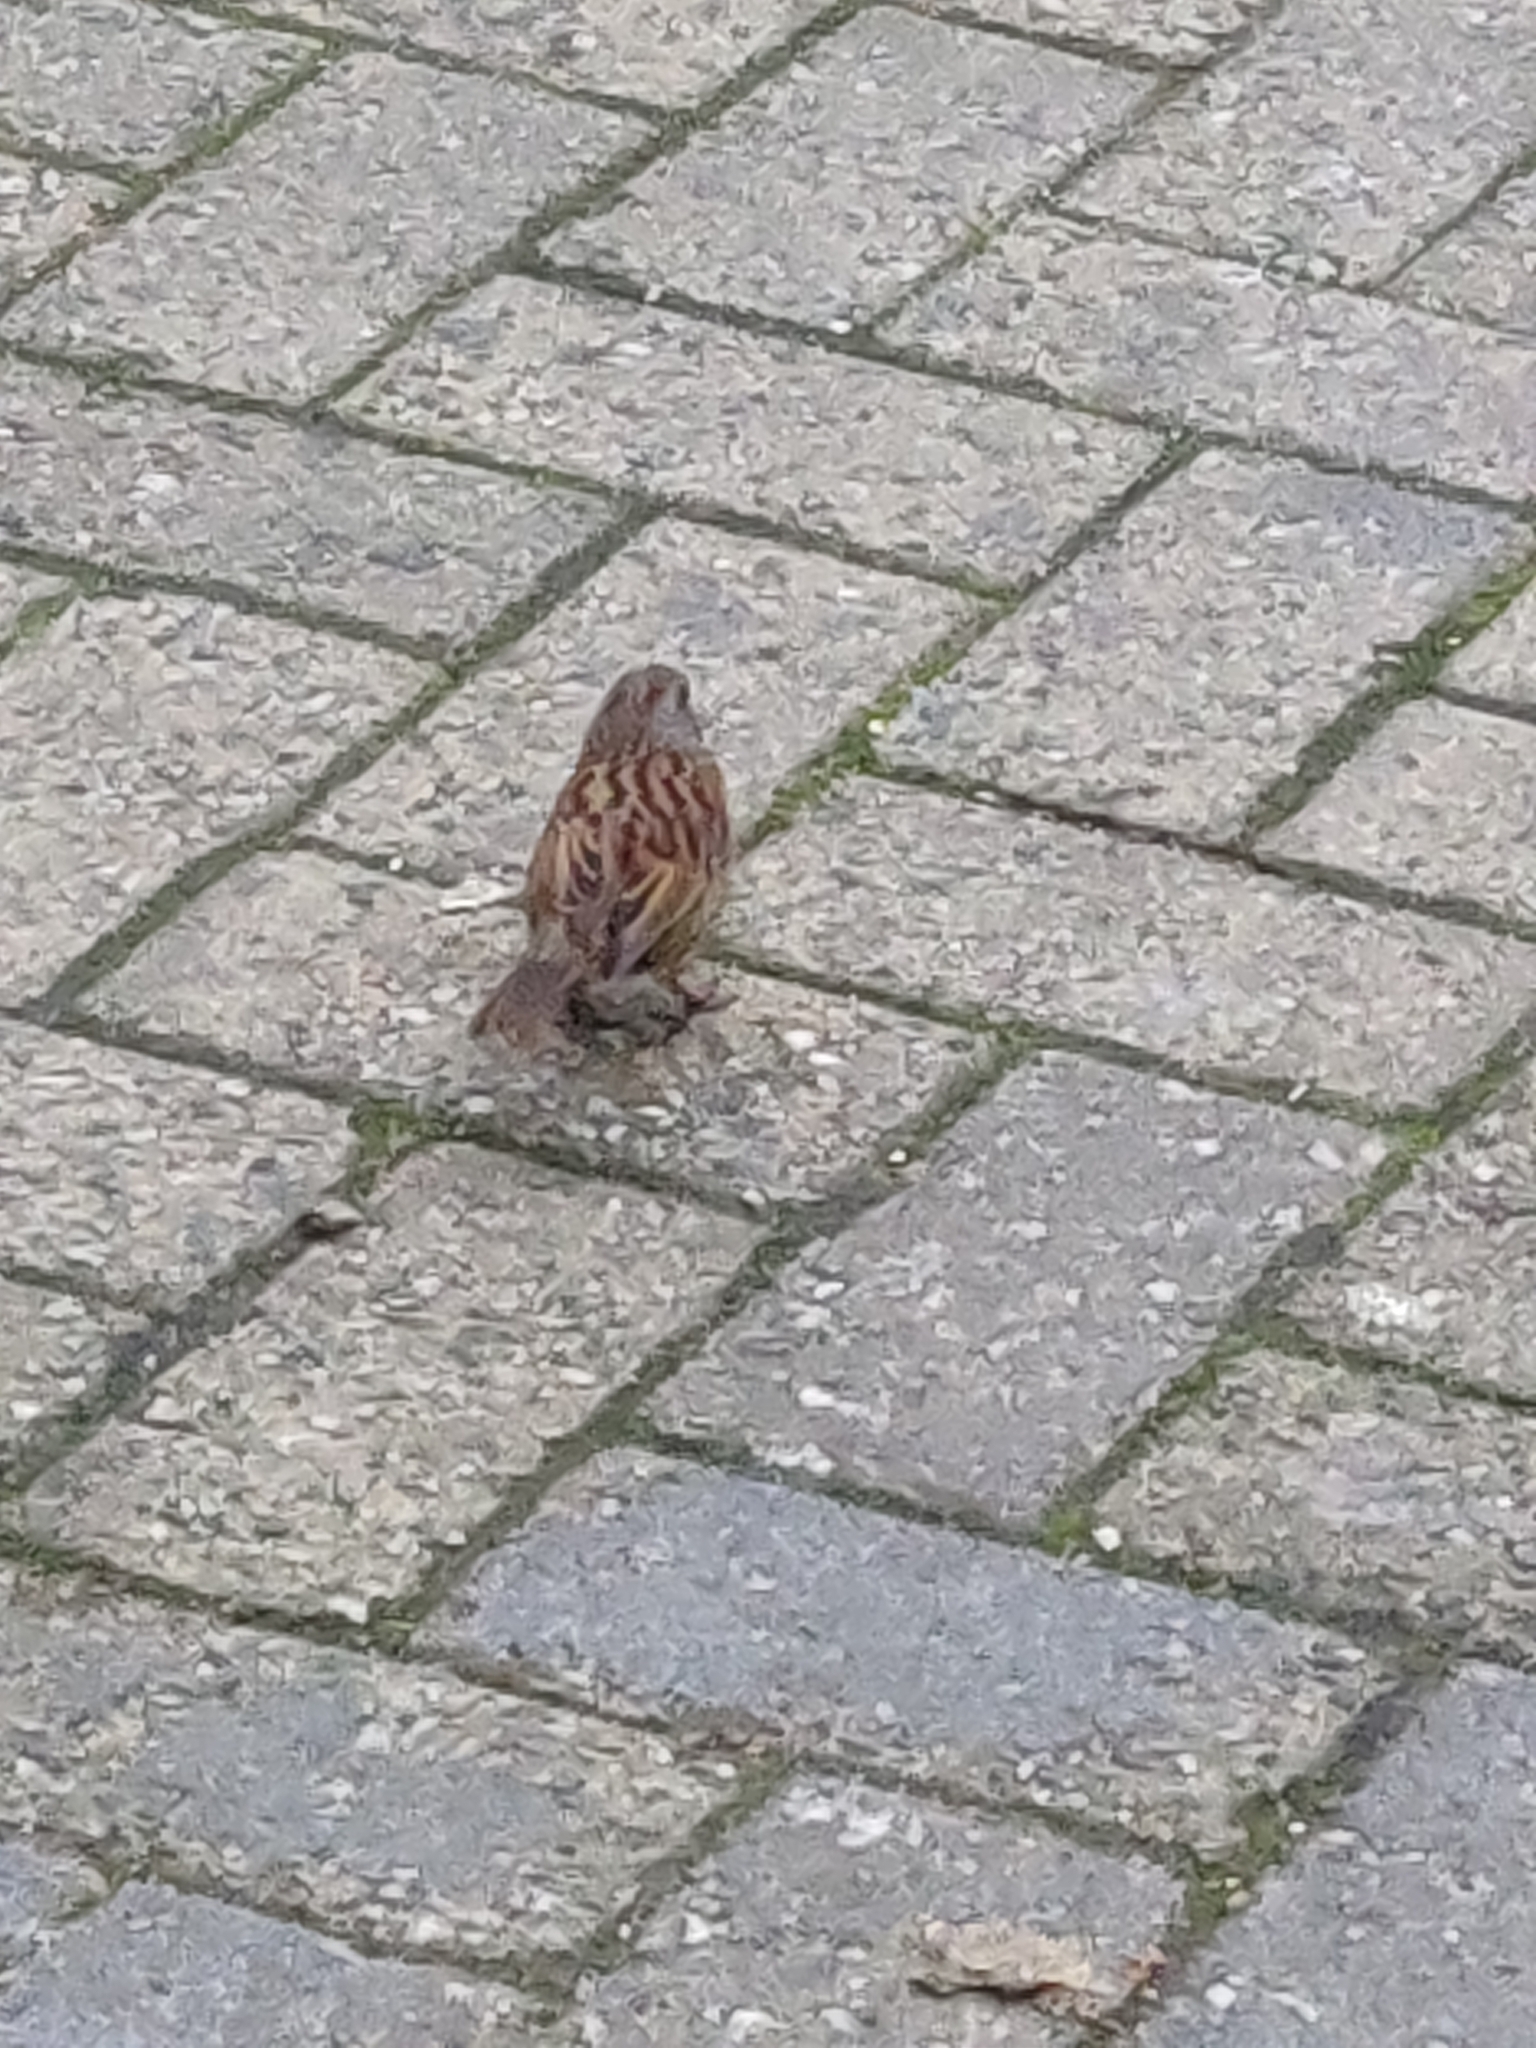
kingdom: Animalia
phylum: Chordata
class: Aves
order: Passeriformes
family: Prunellidae
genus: Prunella
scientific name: Prunella modularis
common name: Dunnock
